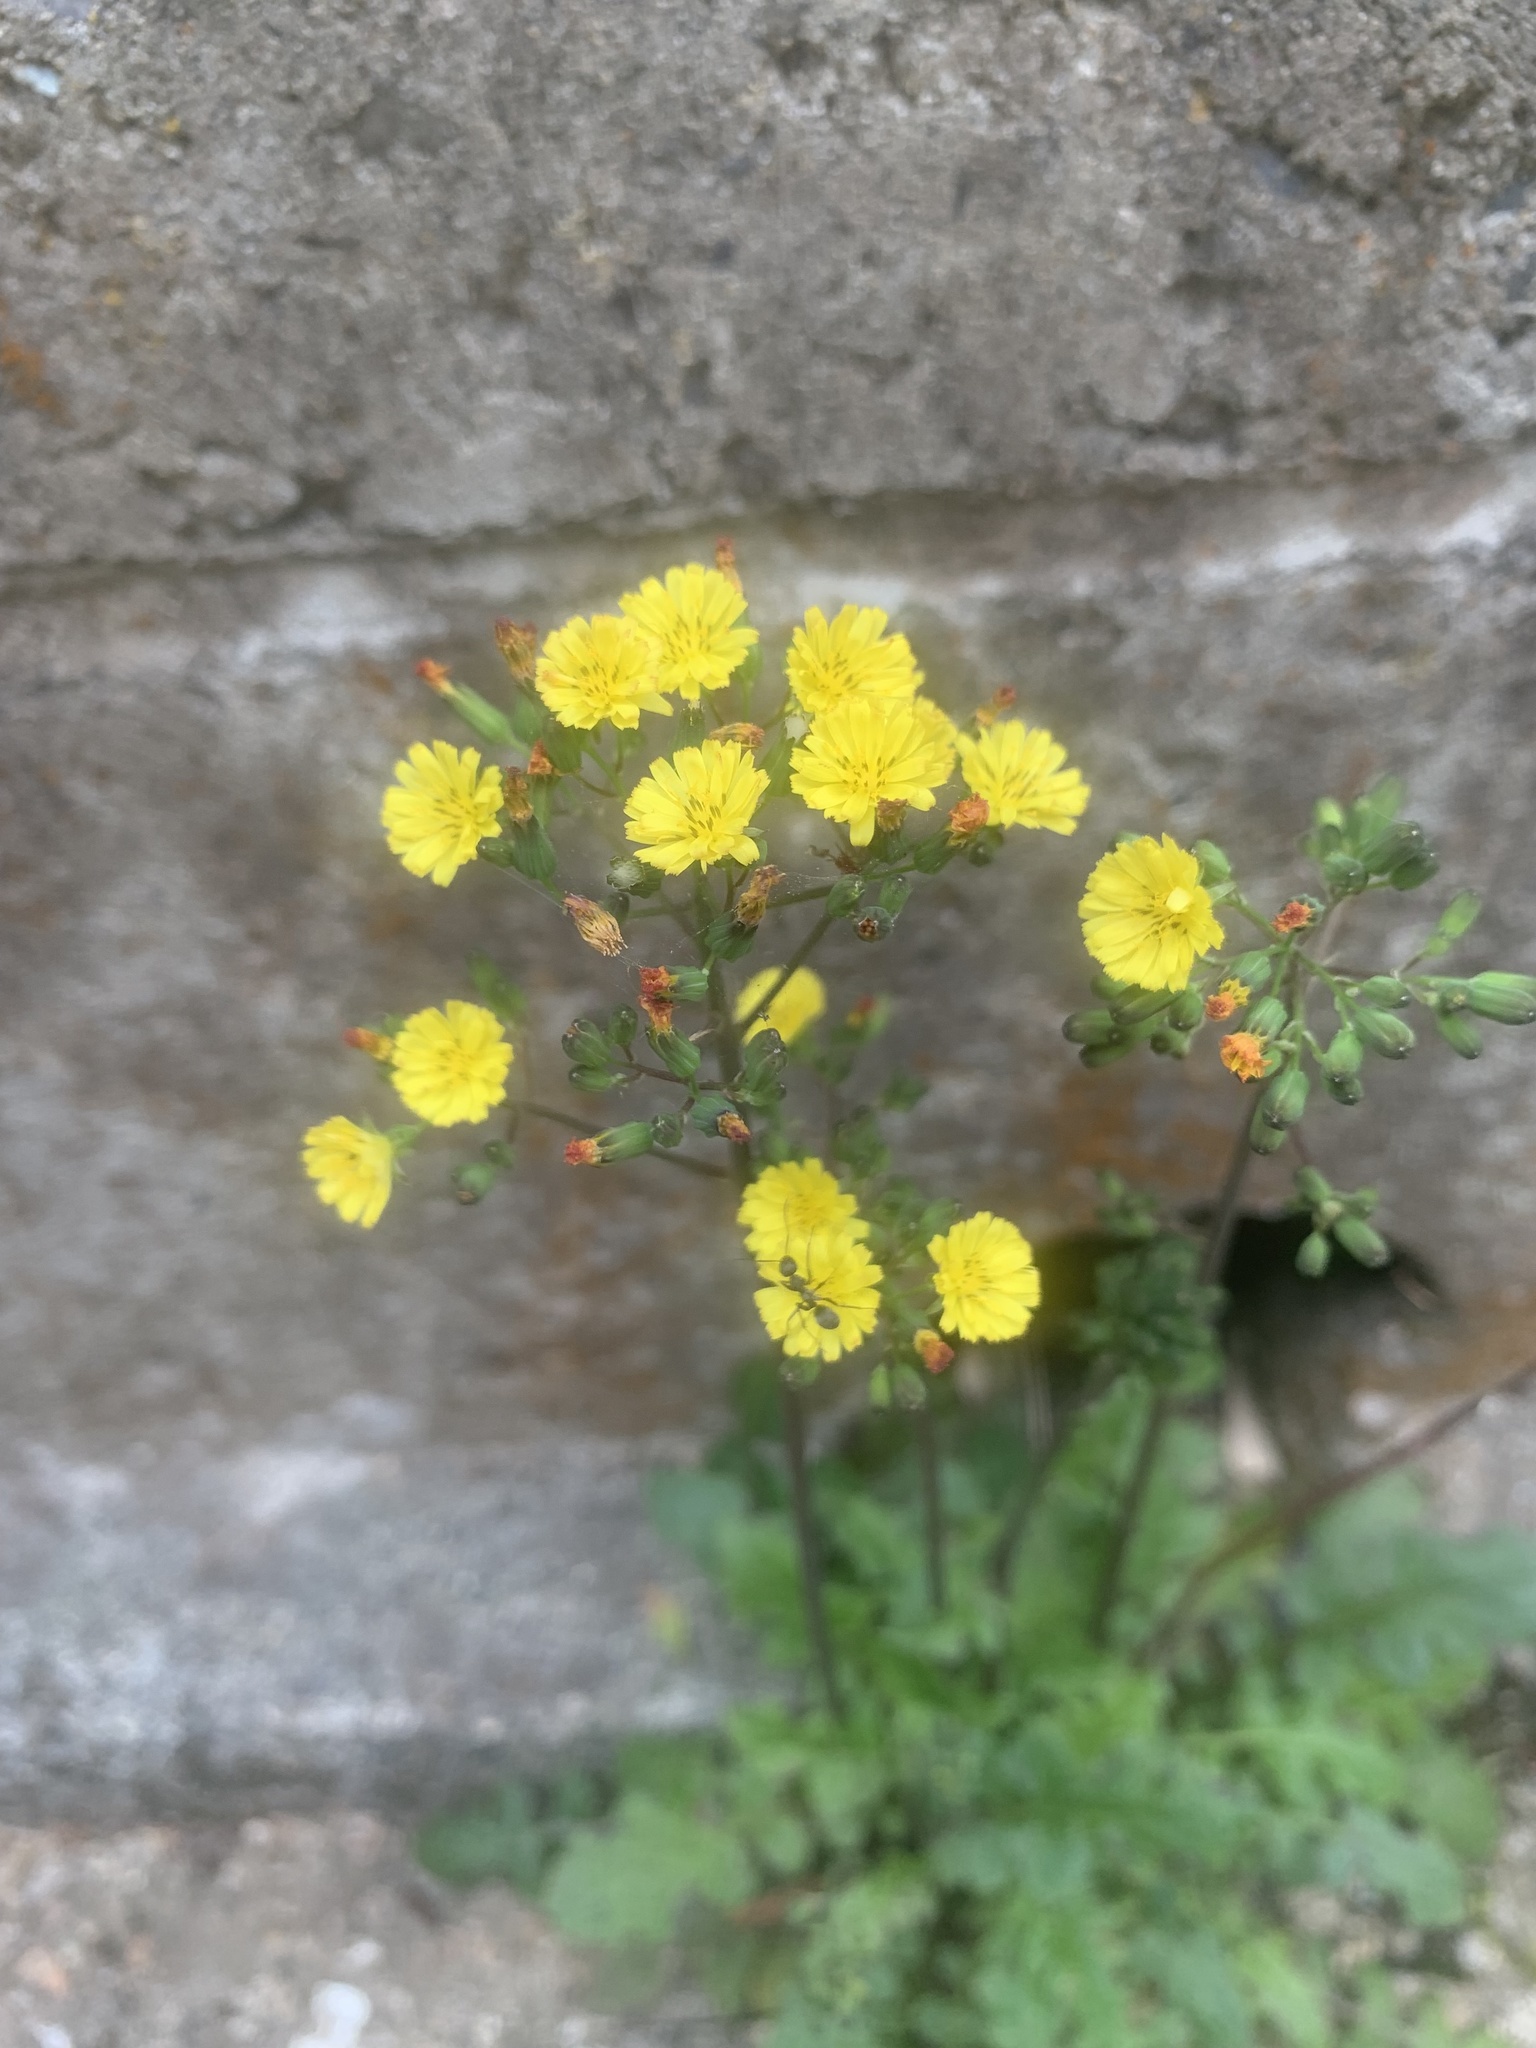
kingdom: Plantae
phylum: Tracheophyta
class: Magnoliopsida
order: Asterales
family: Asteraceae
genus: Youngia
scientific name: Youngia japonica
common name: Oriental false hawksbeard
